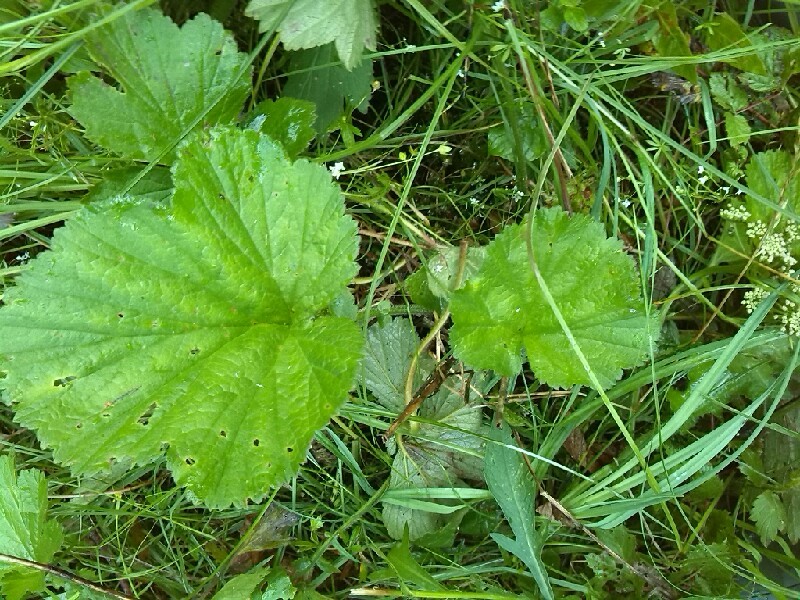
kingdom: Plantae
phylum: Tracheophyta
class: Magnoliopsida
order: Rosales
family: Rosaceae
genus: Geum
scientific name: Geum rivale
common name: Water avens
